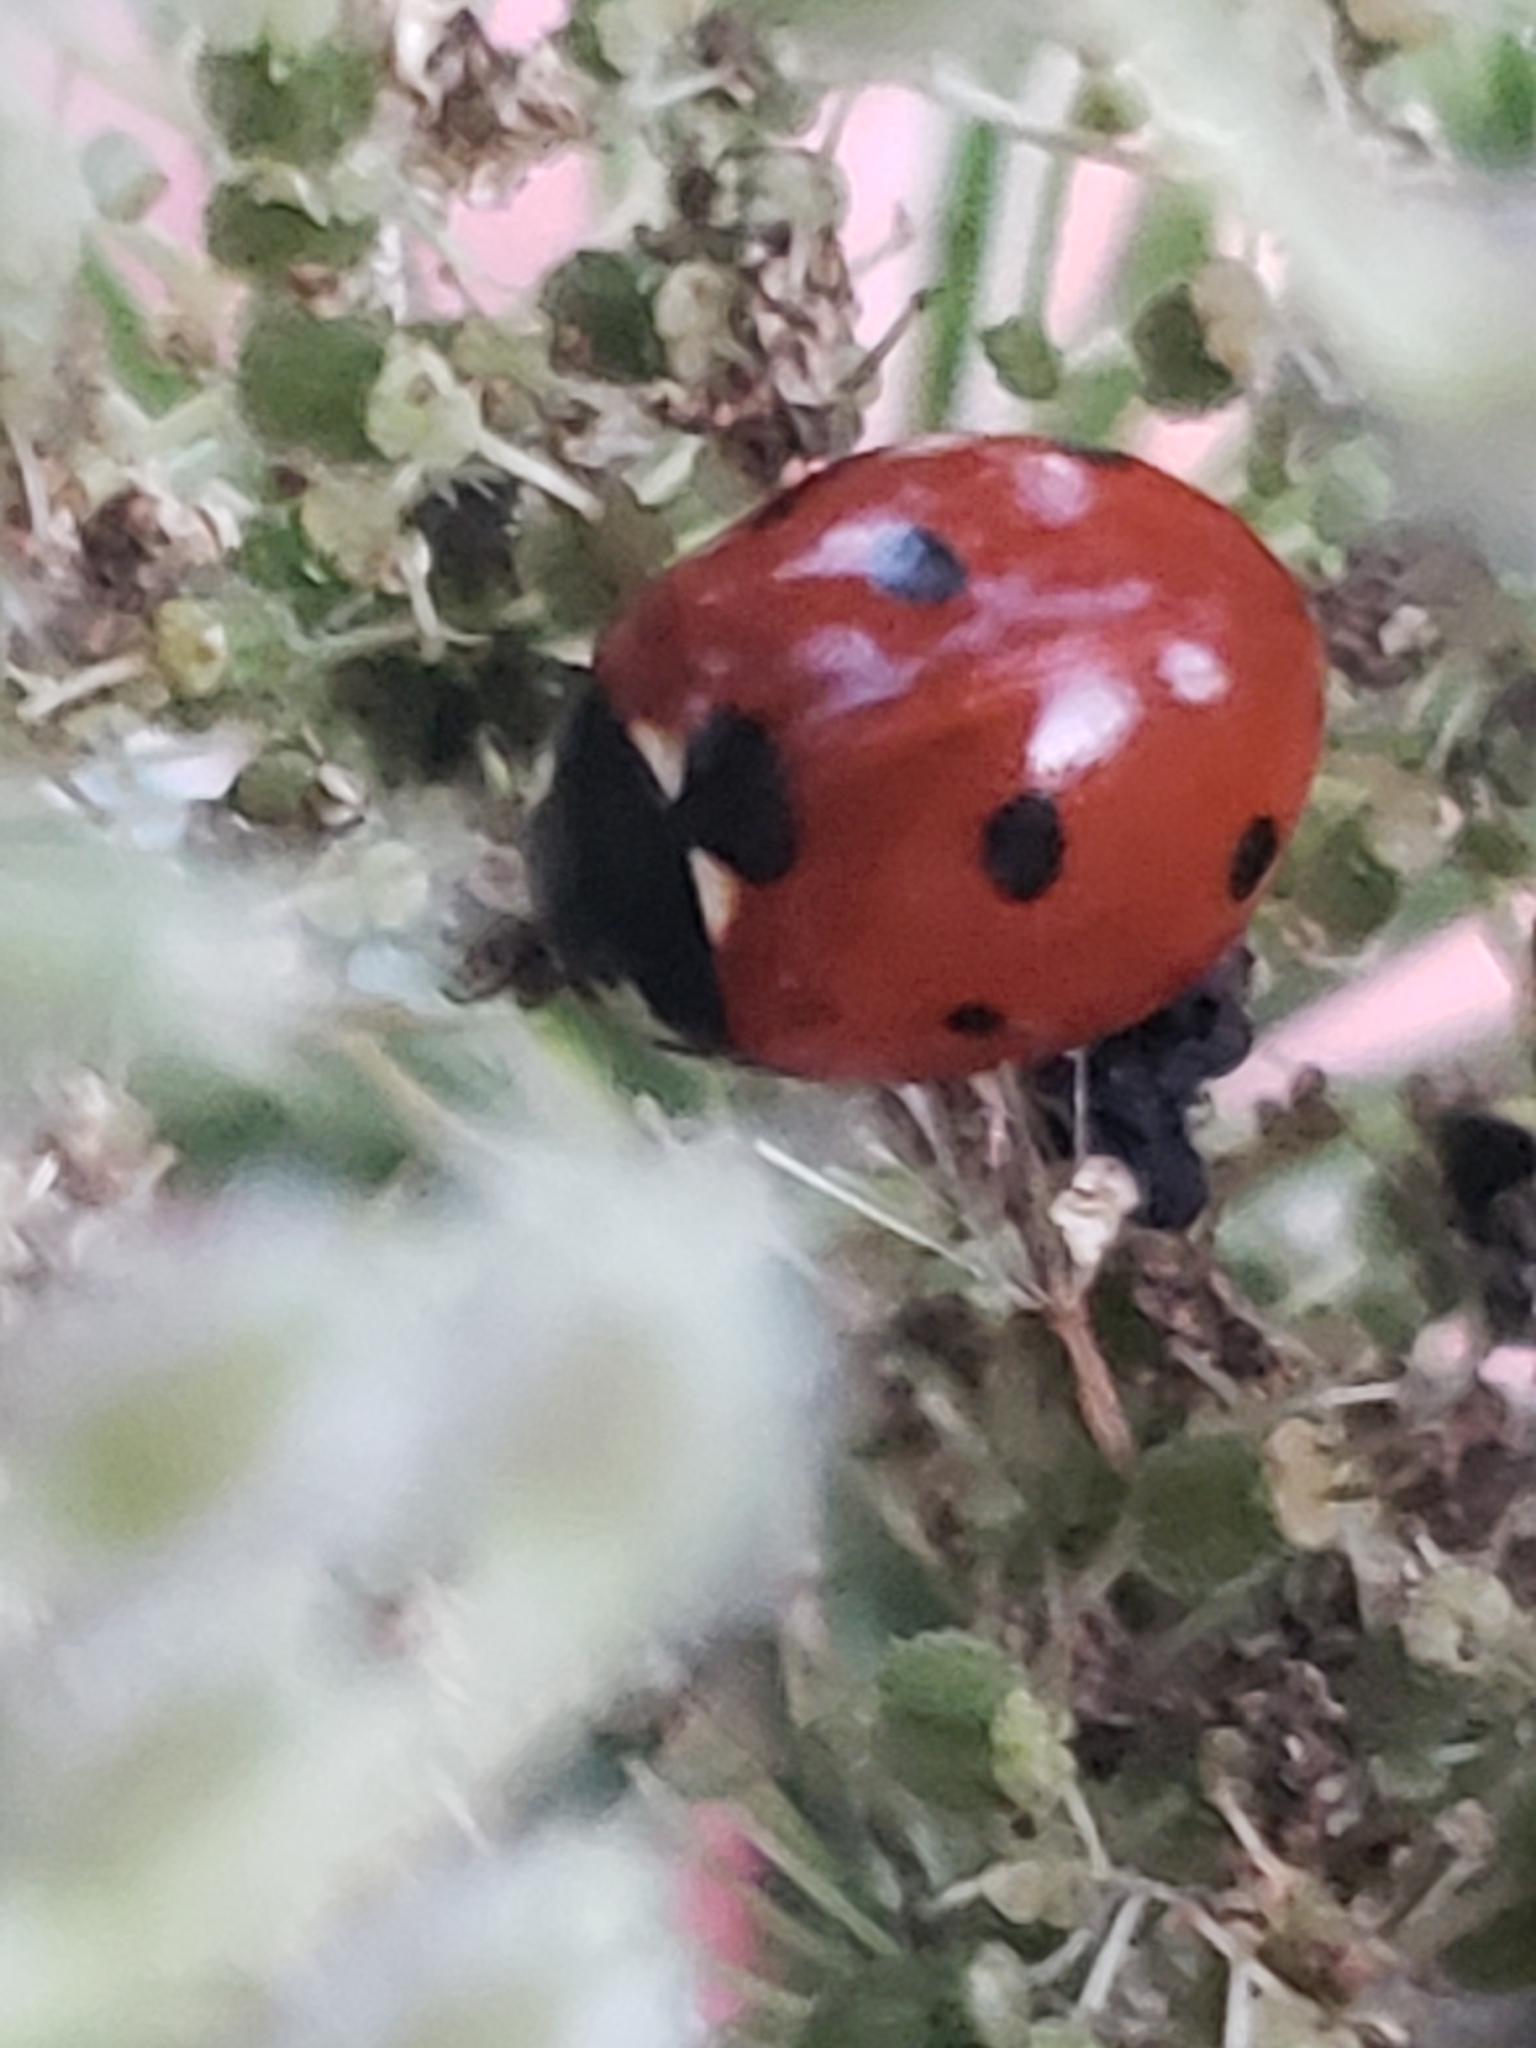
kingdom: Animalia
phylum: Arthropoda
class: Insecta
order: Coleoptera
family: Coccinellidae
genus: Coccinella
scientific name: Coccinella septempunctata
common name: Sevenspotted lady beetle
